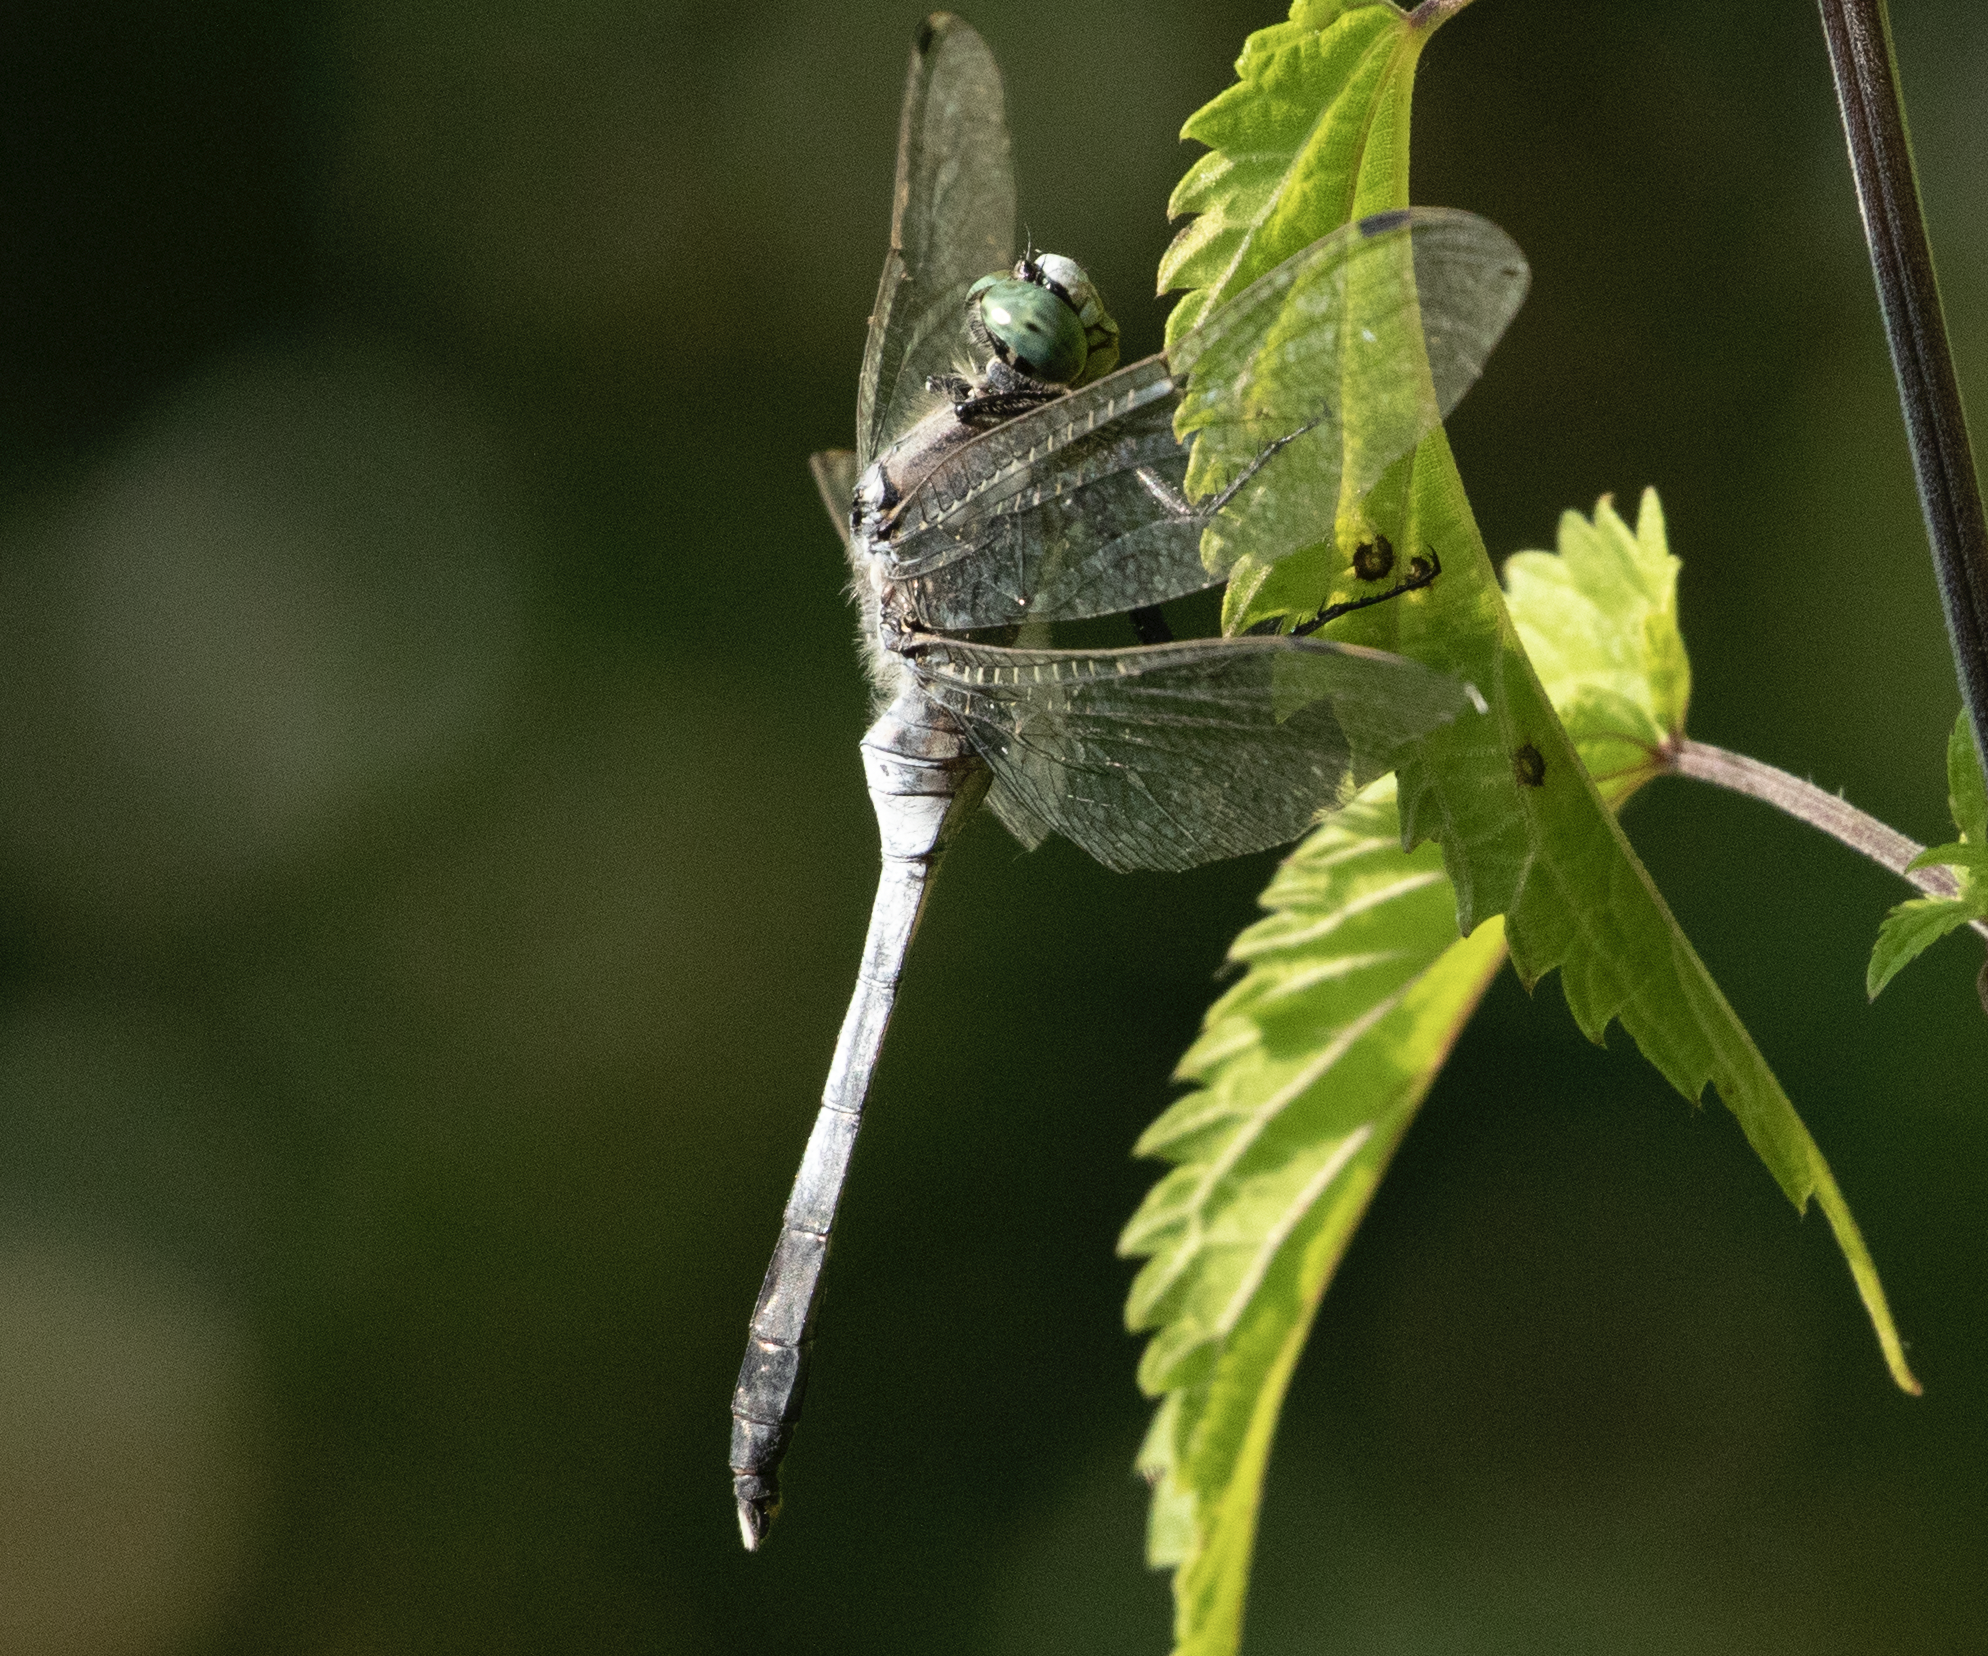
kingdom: Animalia
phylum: Arthropoda
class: Insecta
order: Odonata
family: Libellulidae
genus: Orthetrum
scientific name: Orthetrum albistylum
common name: White-tailed skimmer
